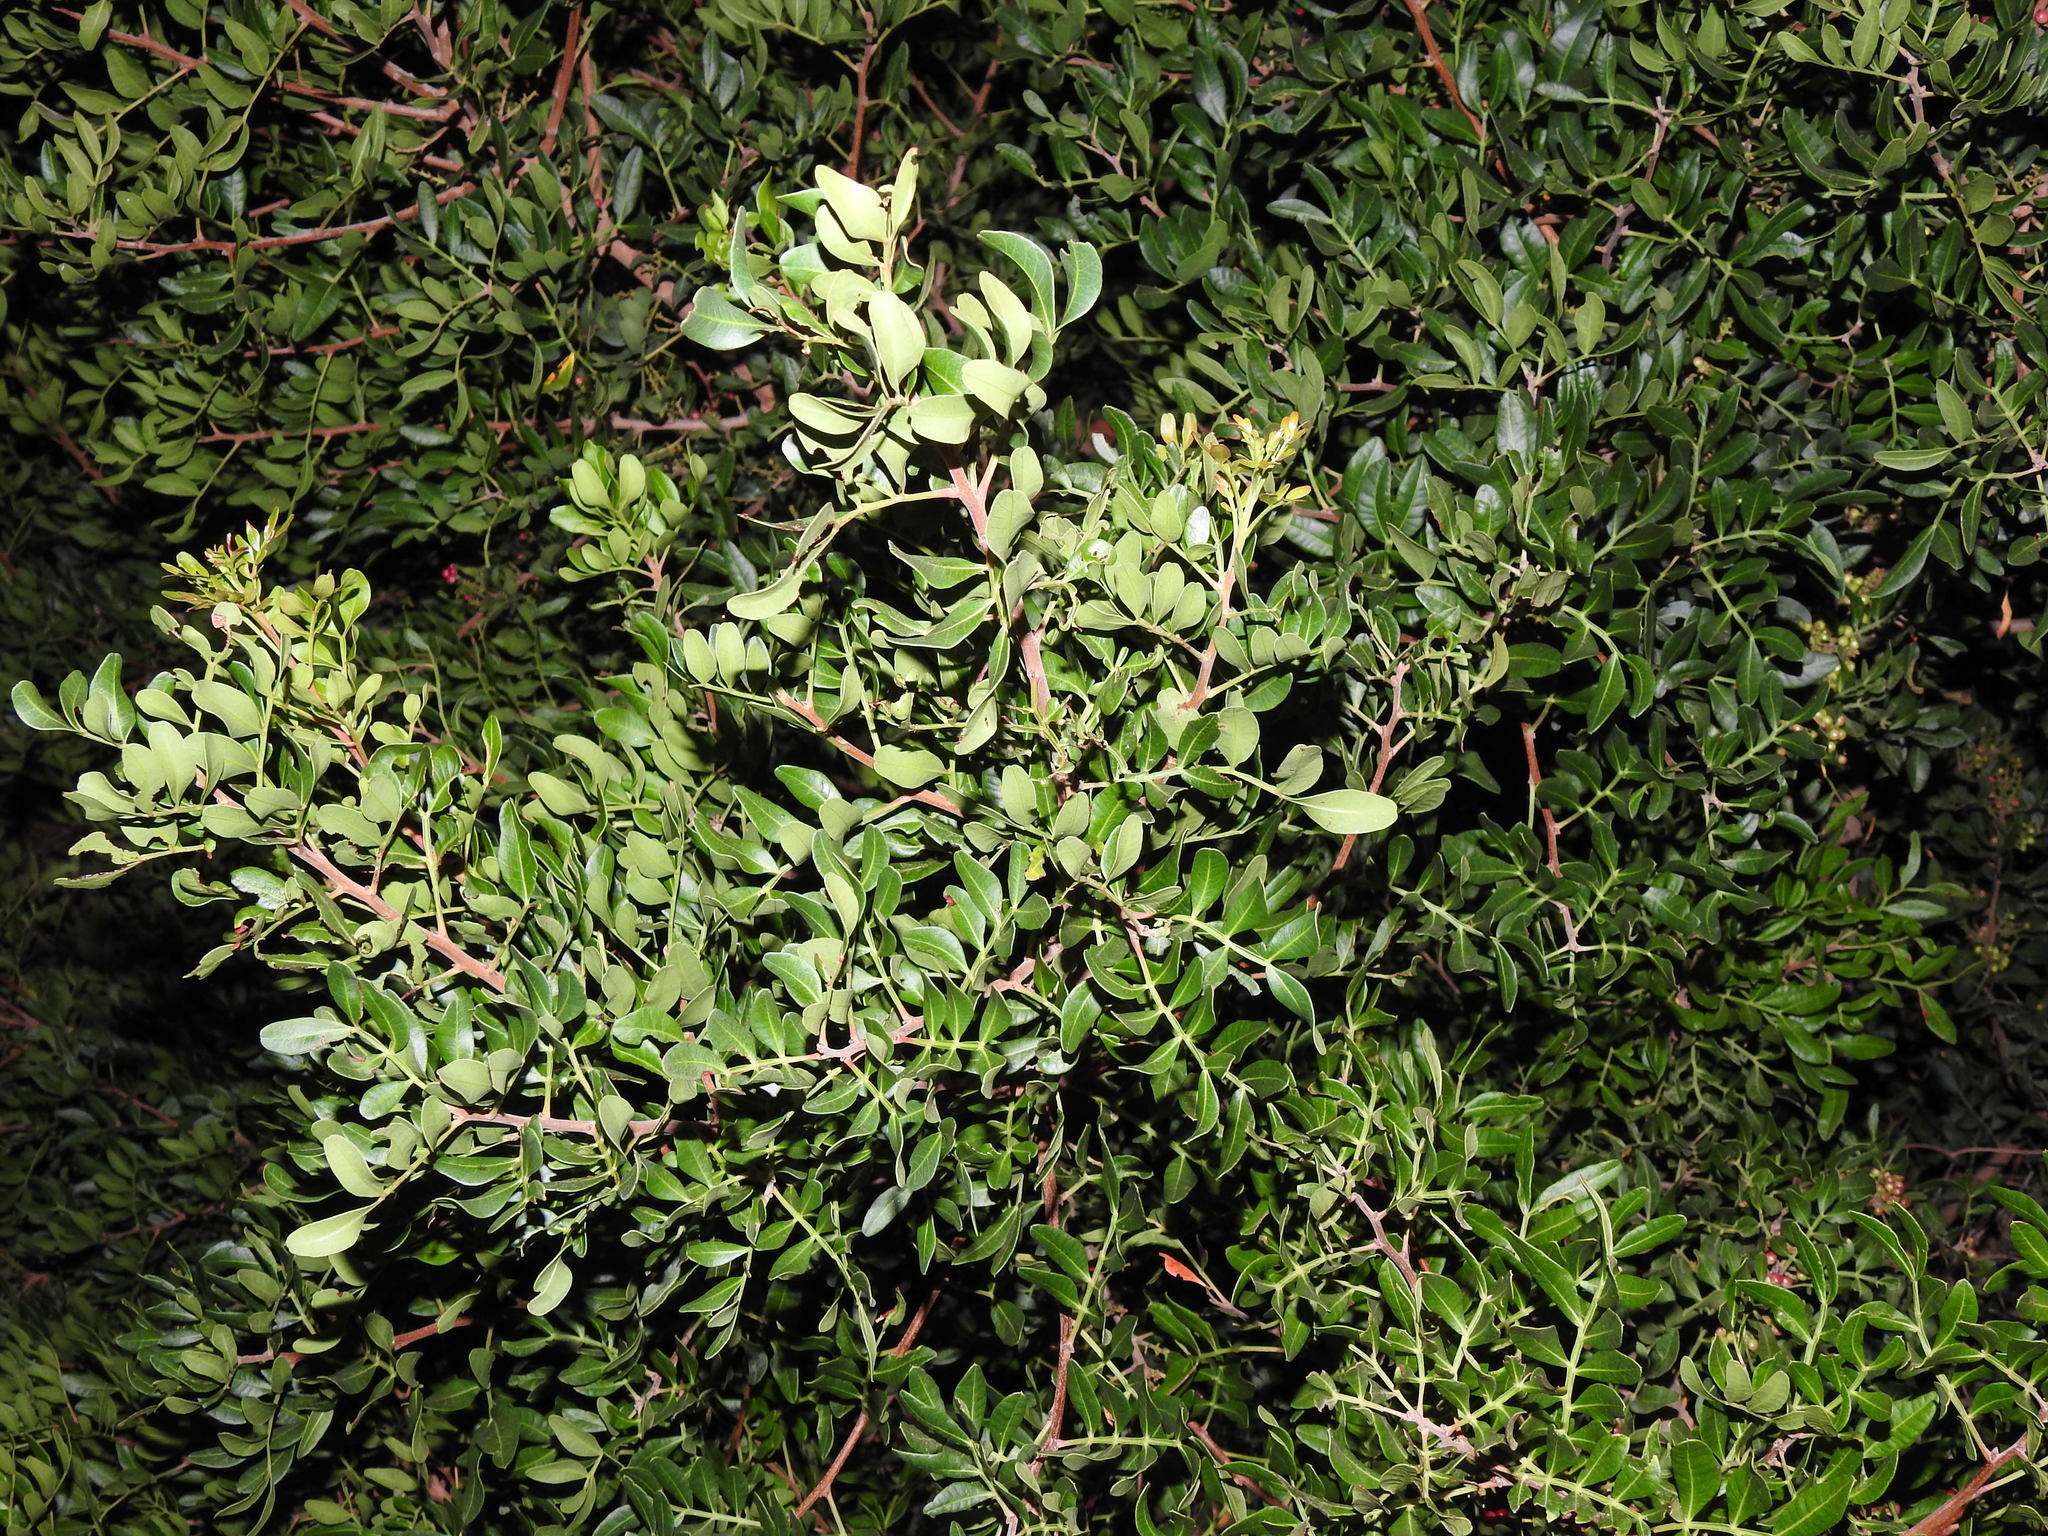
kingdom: Plantae
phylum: Tracheophyta
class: Magnoliopsida
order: Sapindales
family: Anacardiaceae
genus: Pistacia
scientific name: Pistacia lentiscus
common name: Lentisk
